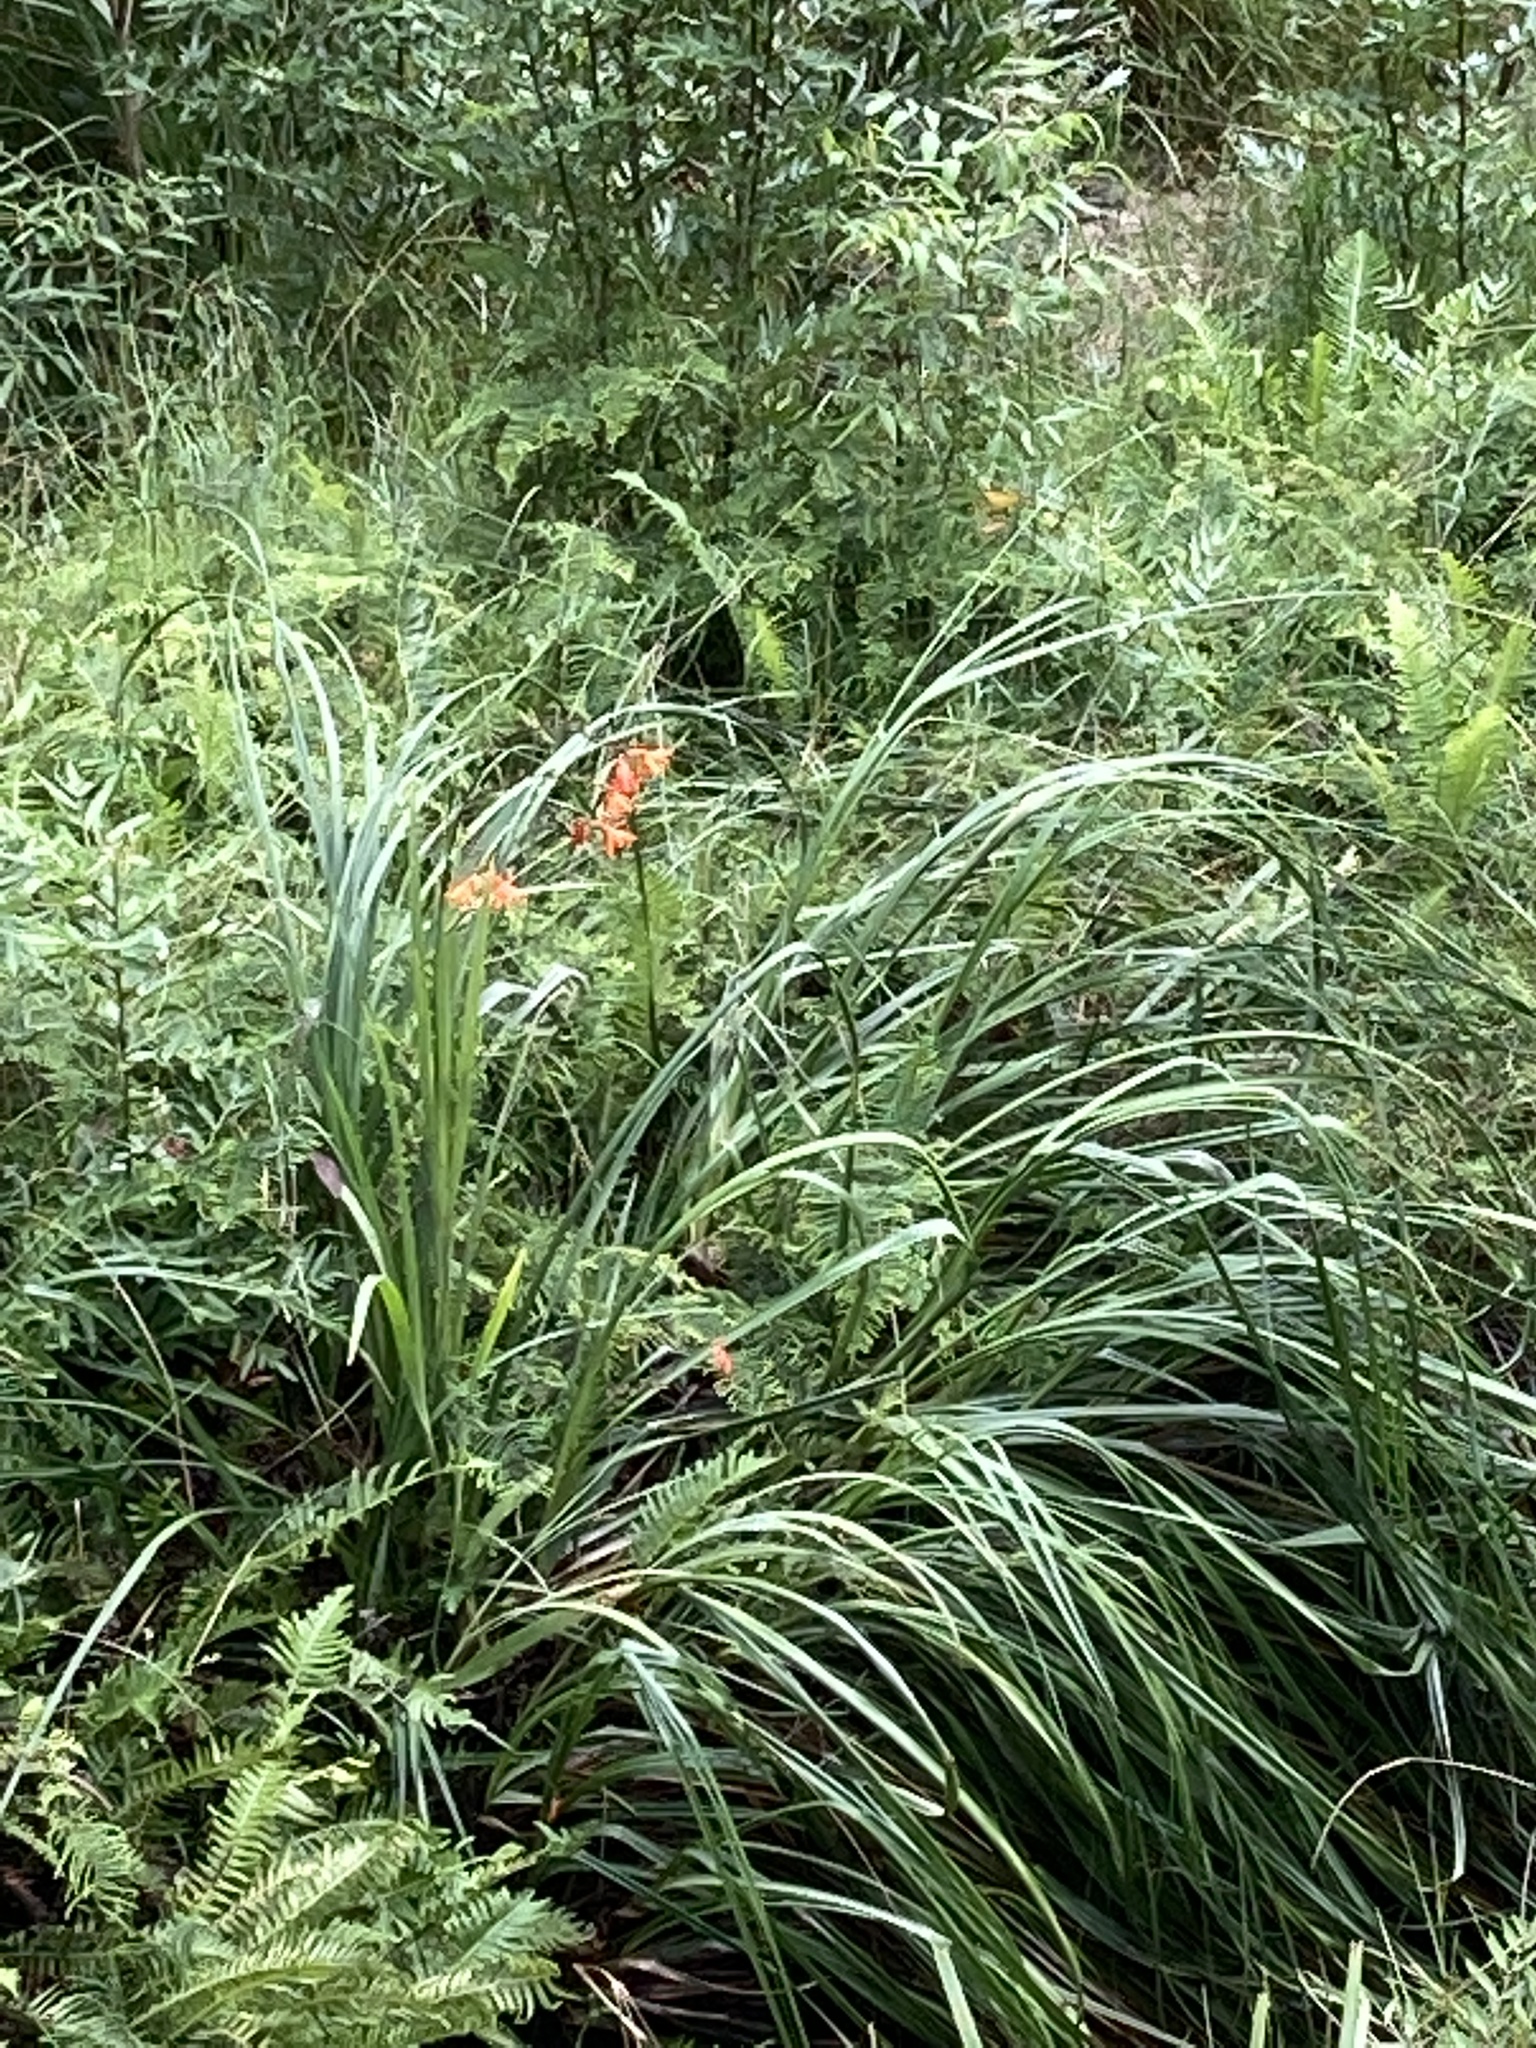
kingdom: Plantae
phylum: Tracheophyta
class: Liliopsida
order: Asparagales
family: Iridaceae
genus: Crocosmia
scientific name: Crocosmia crocosmiiflora
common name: Montbretia
